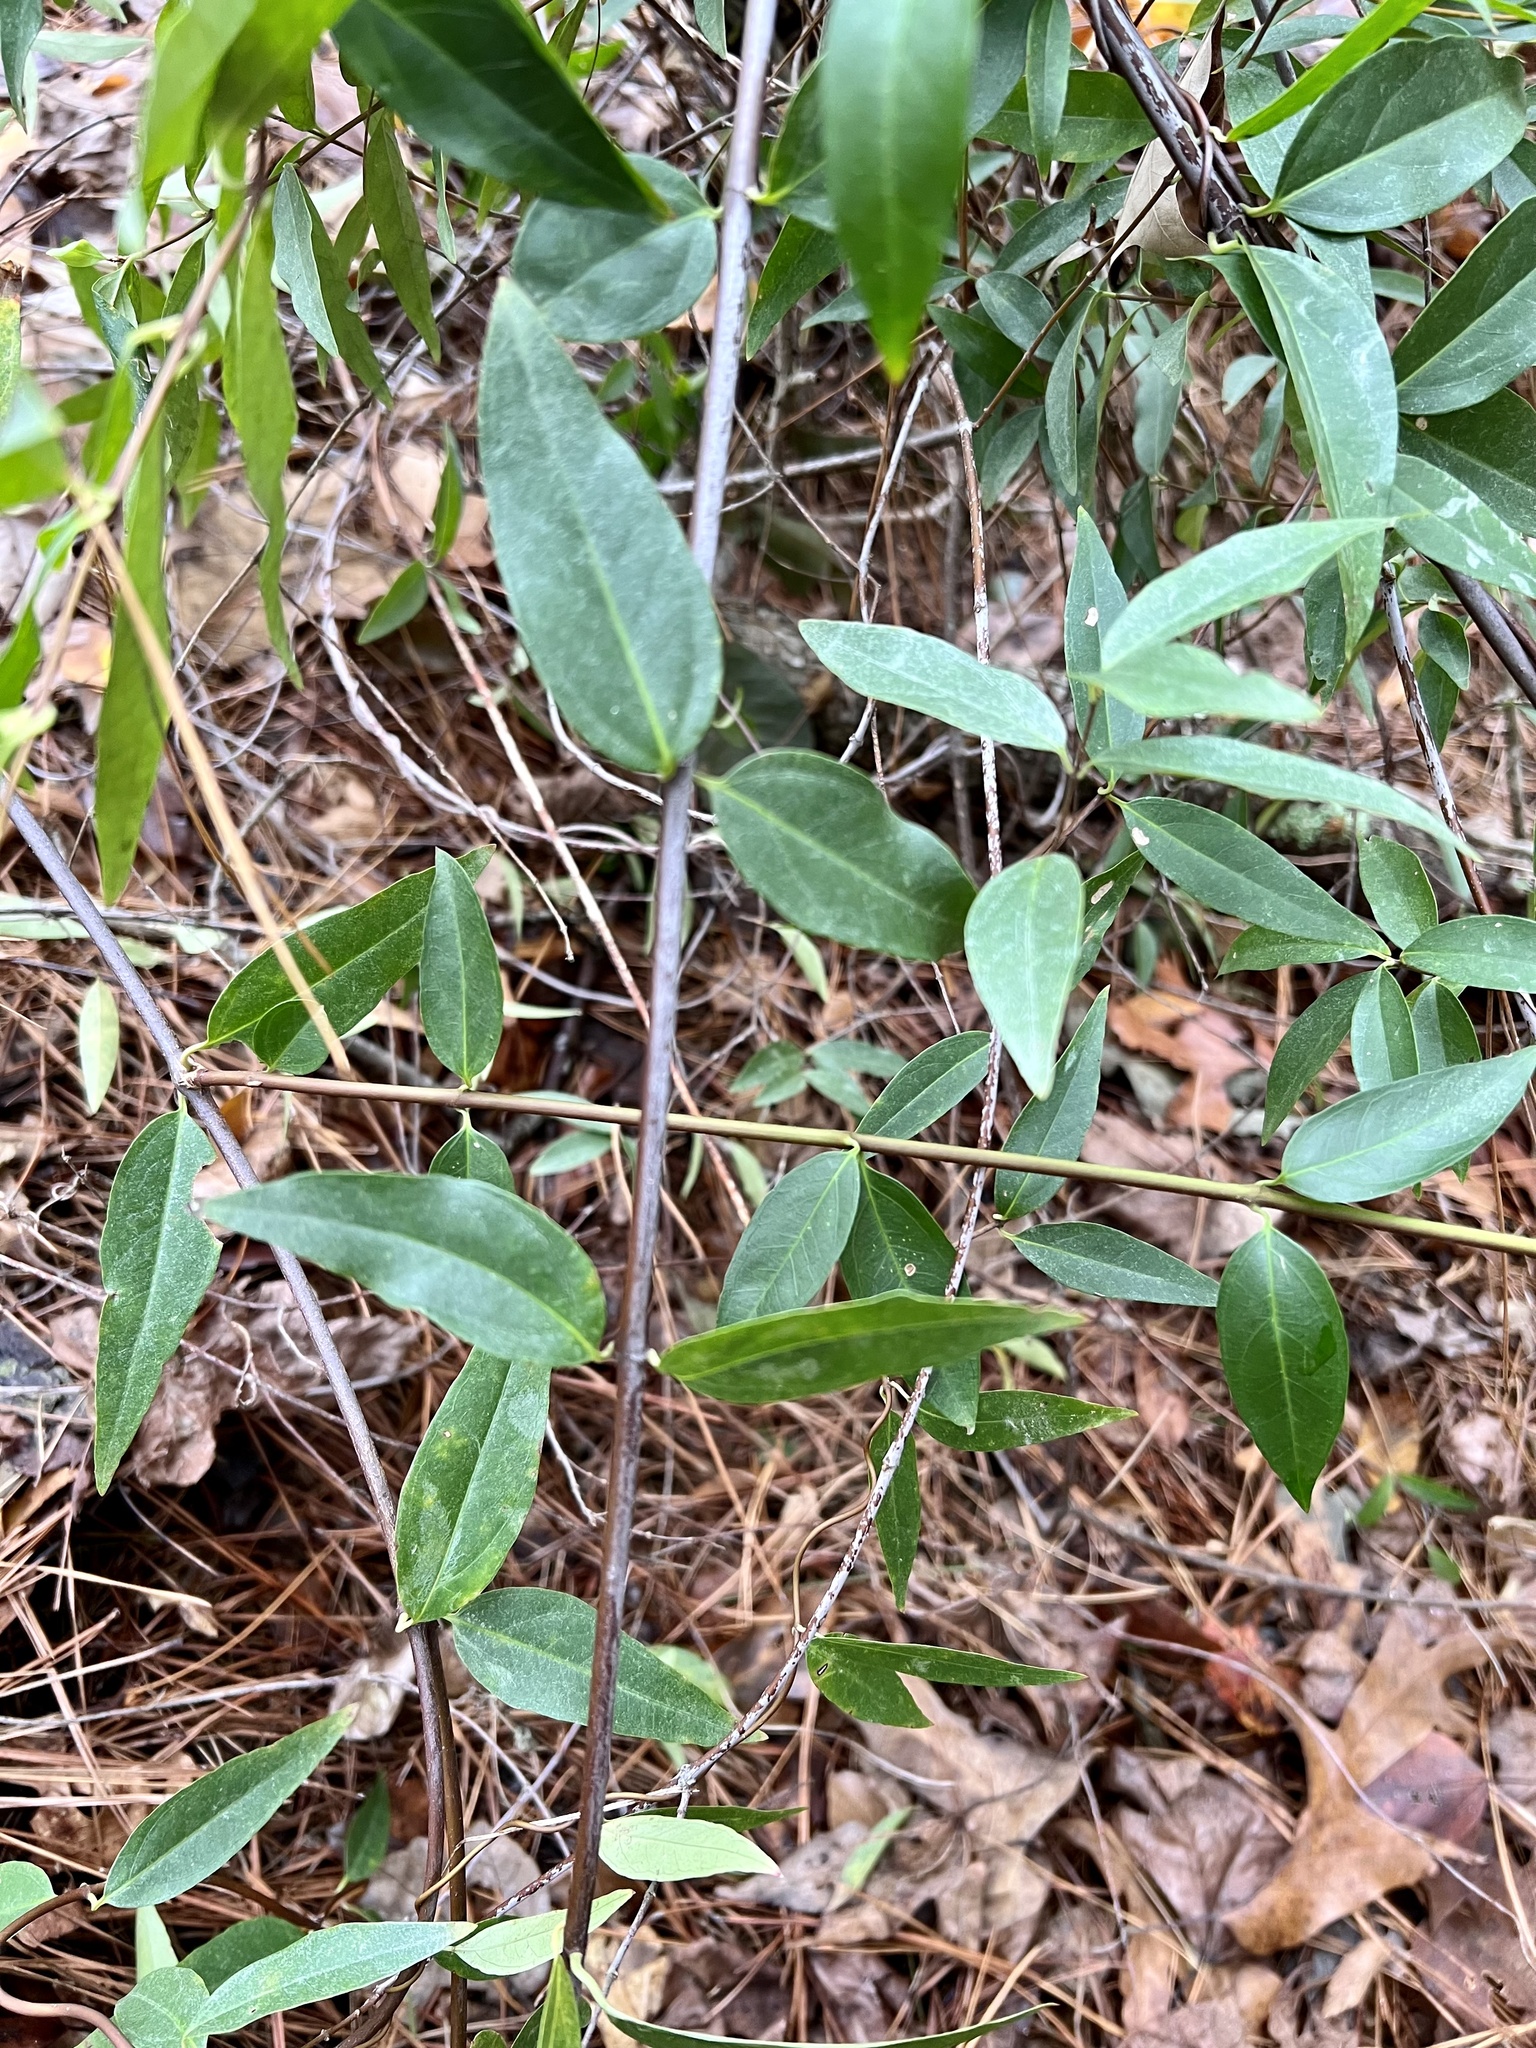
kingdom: Plantae
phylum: Tracheophyta
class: Magnoliopsida
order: Gentianales
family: Gelsemiaceae
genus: Gelsemium
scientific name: Gelsemium sempervirens
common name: Carolina-jasmine
